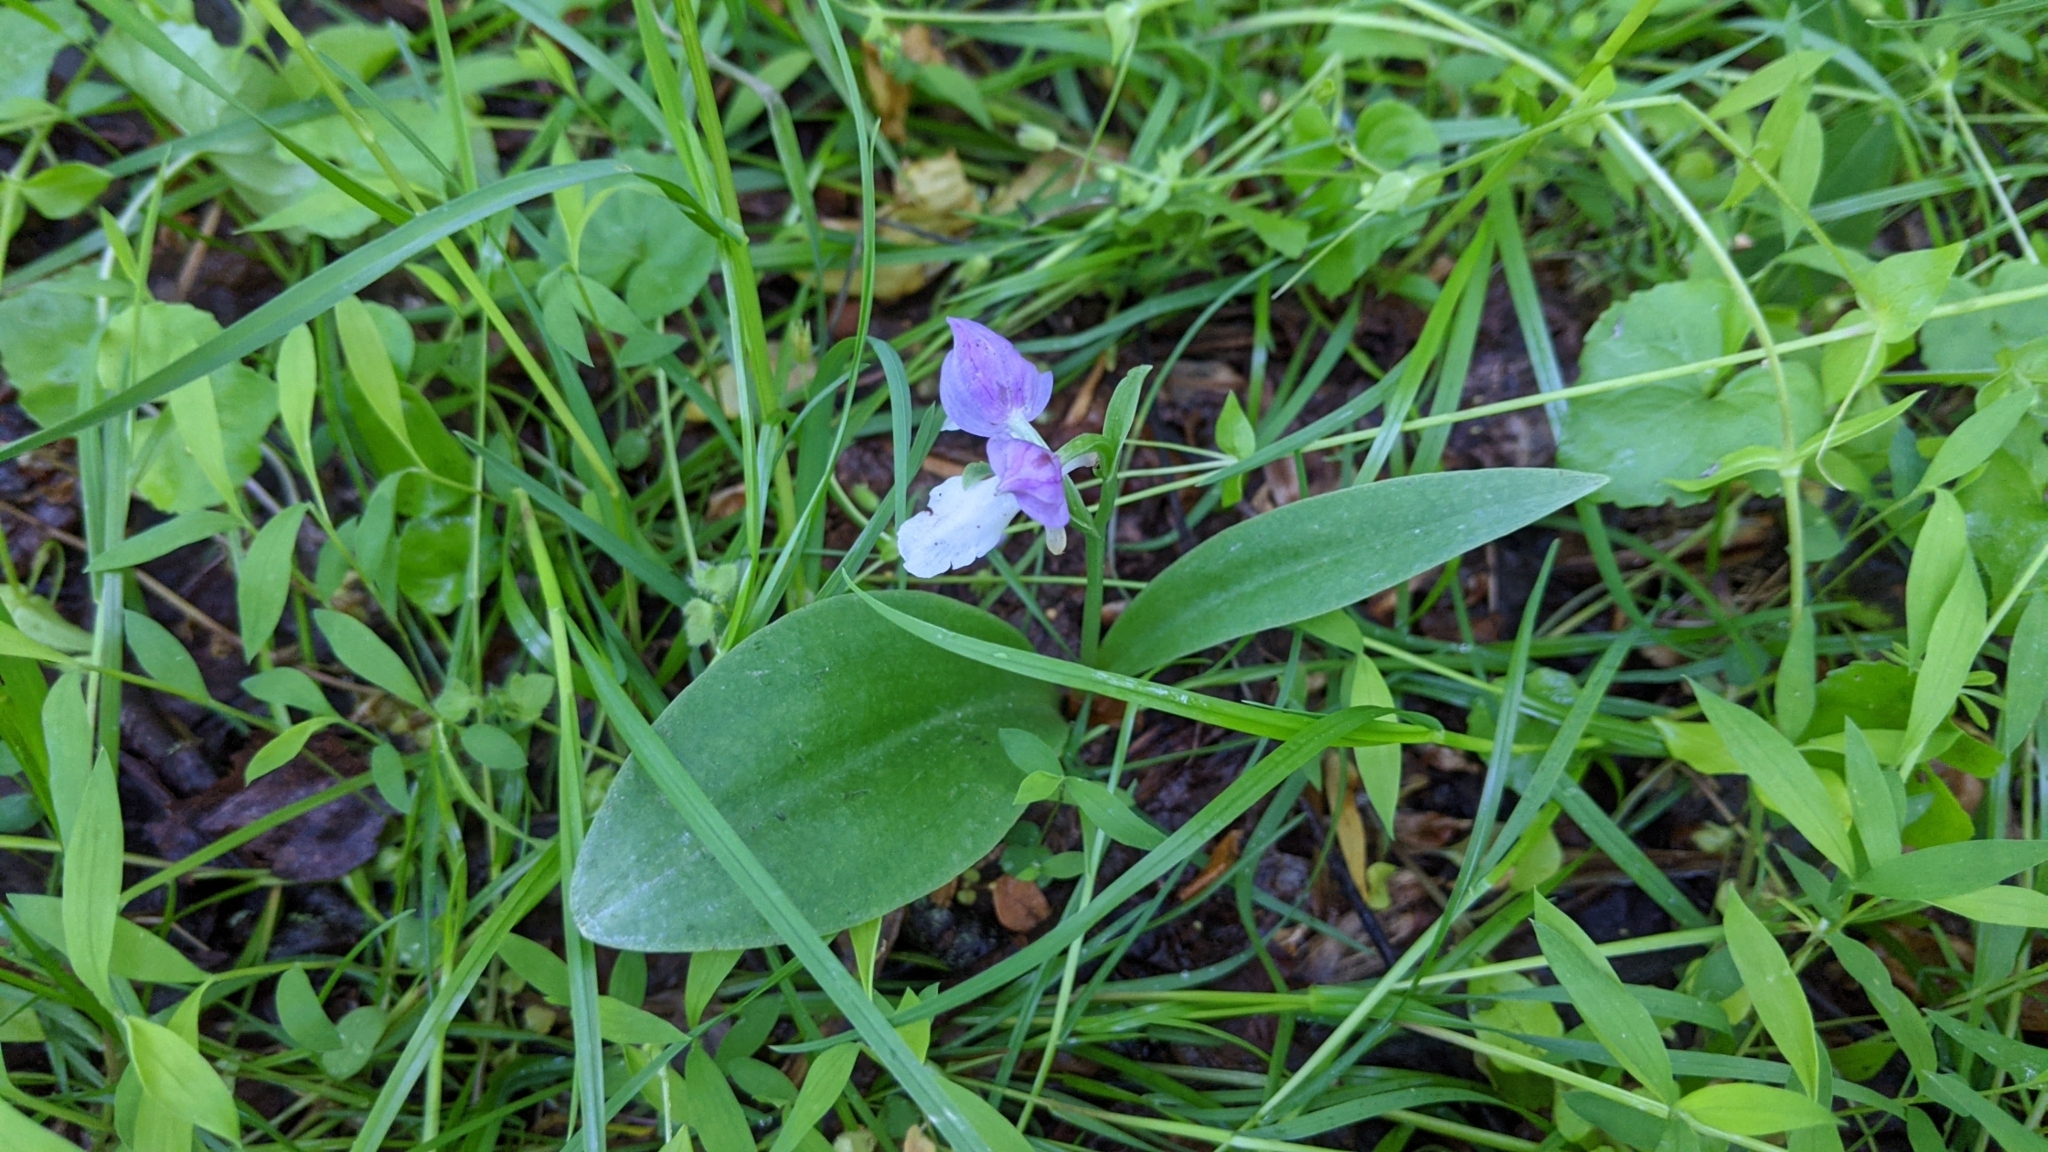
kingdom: Plantae
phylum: Tracheophyta
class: Liliopsida
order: Asparagales
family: Orchidaceae
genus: Galearis
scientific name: Galearis spectabilis
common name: Purple-hooded orchis
